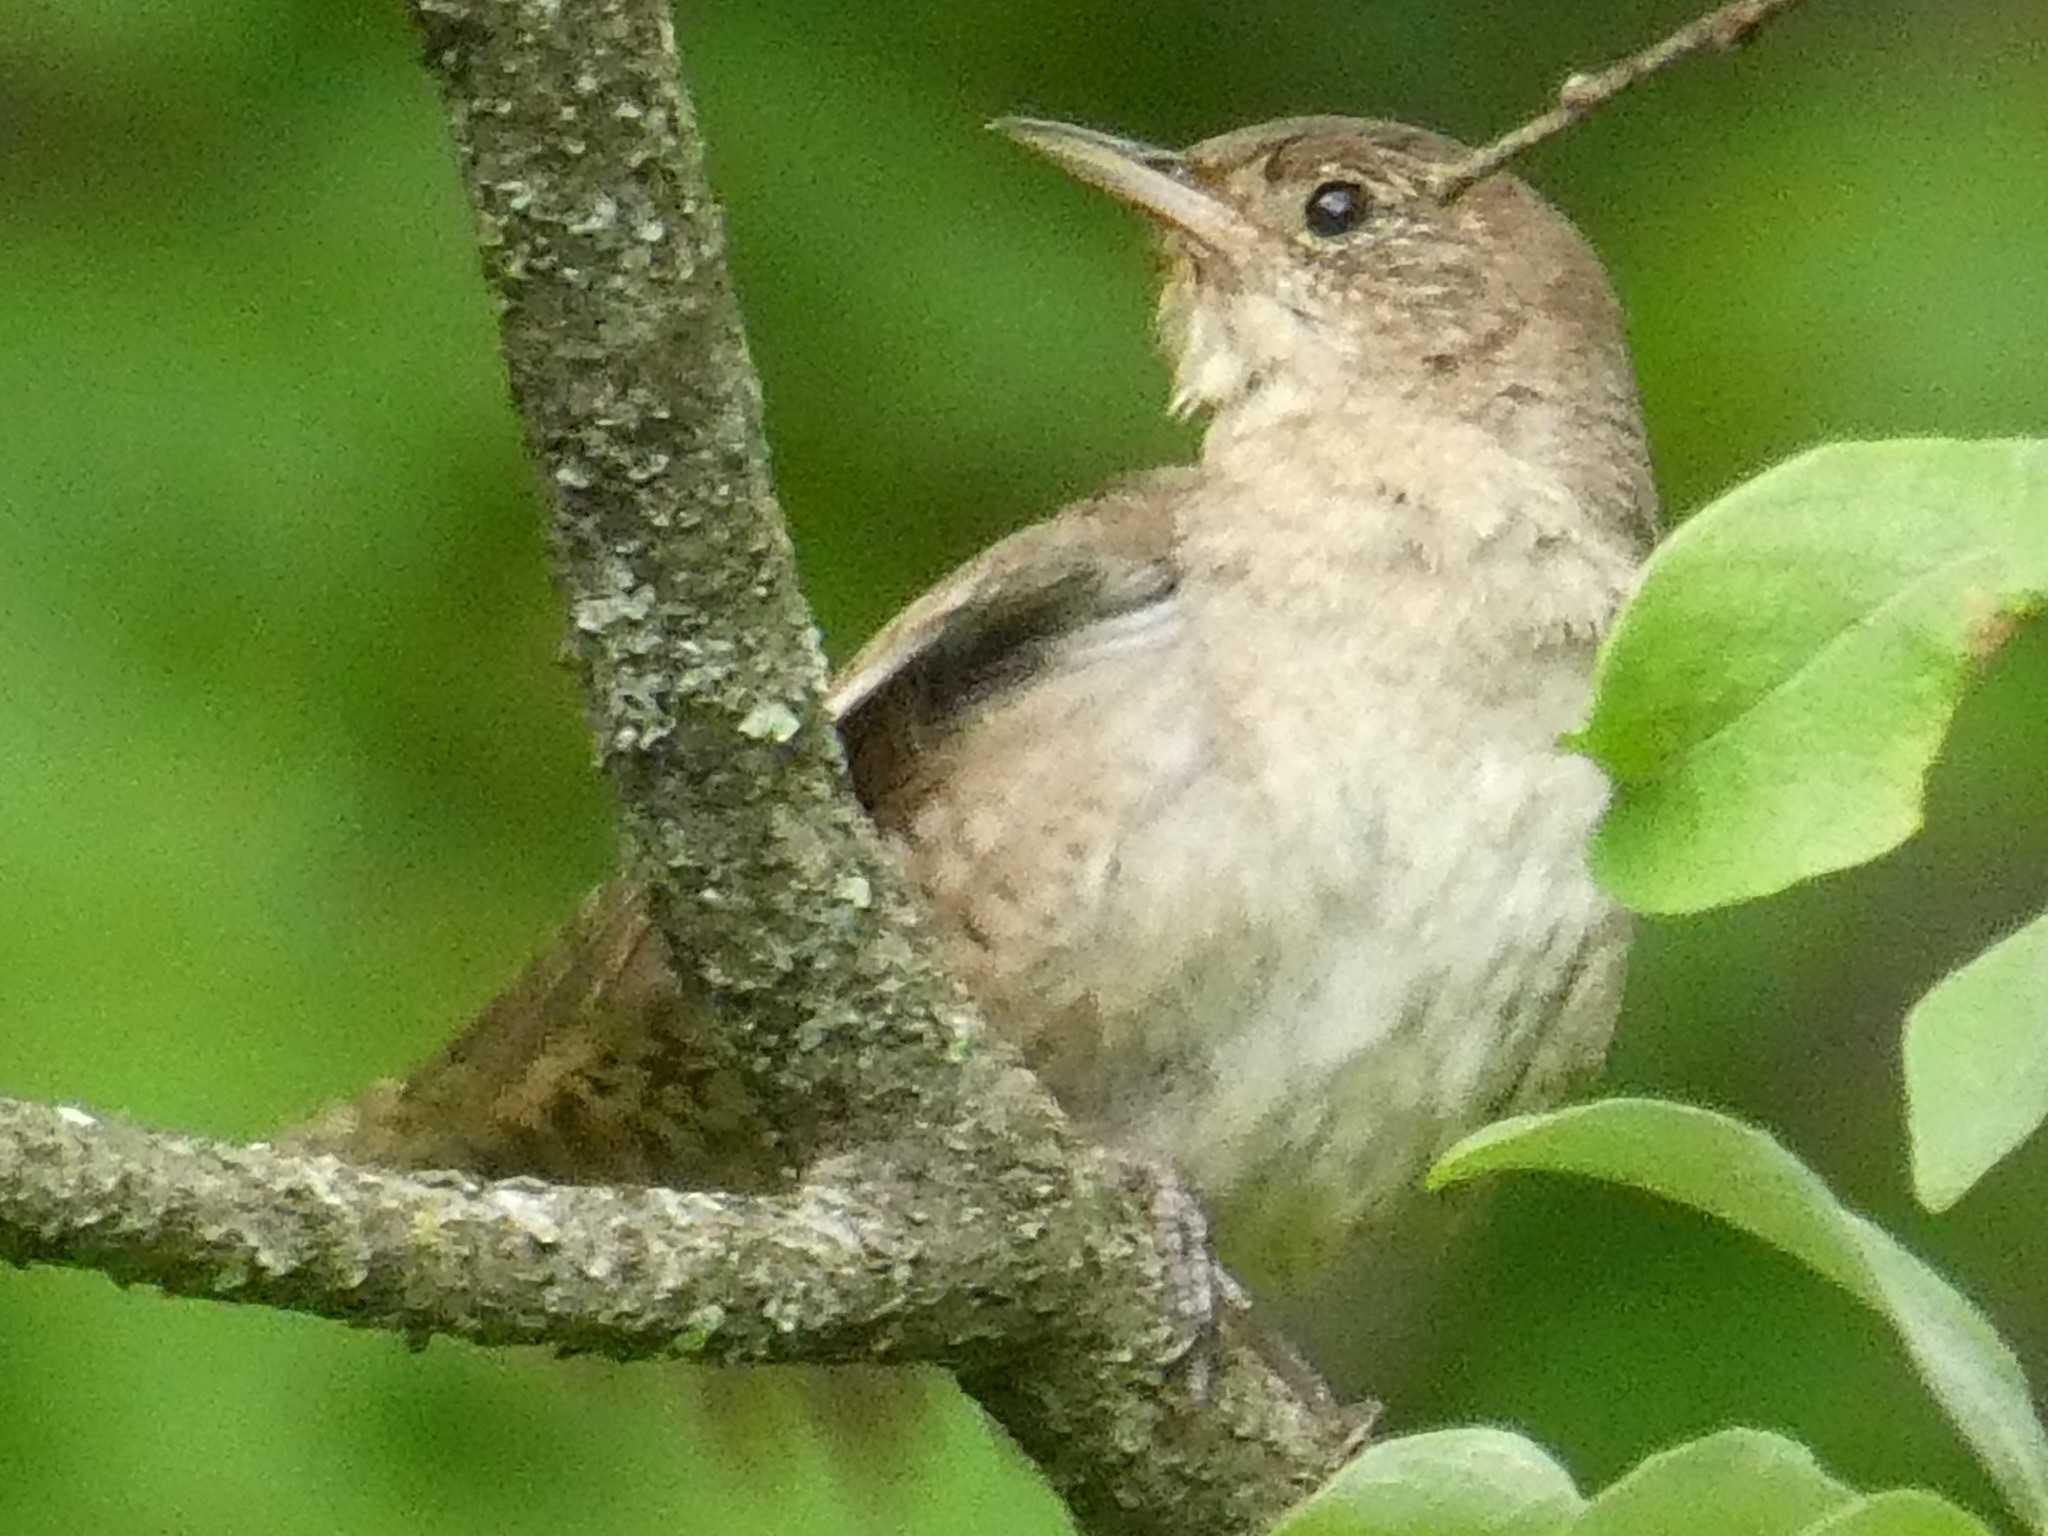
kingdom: Animalia
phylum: Chordata
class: Aves
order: Passeriformes
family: Troglodytidae
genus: Troglodytes
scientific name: Troglodytes aedon
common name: House wren
